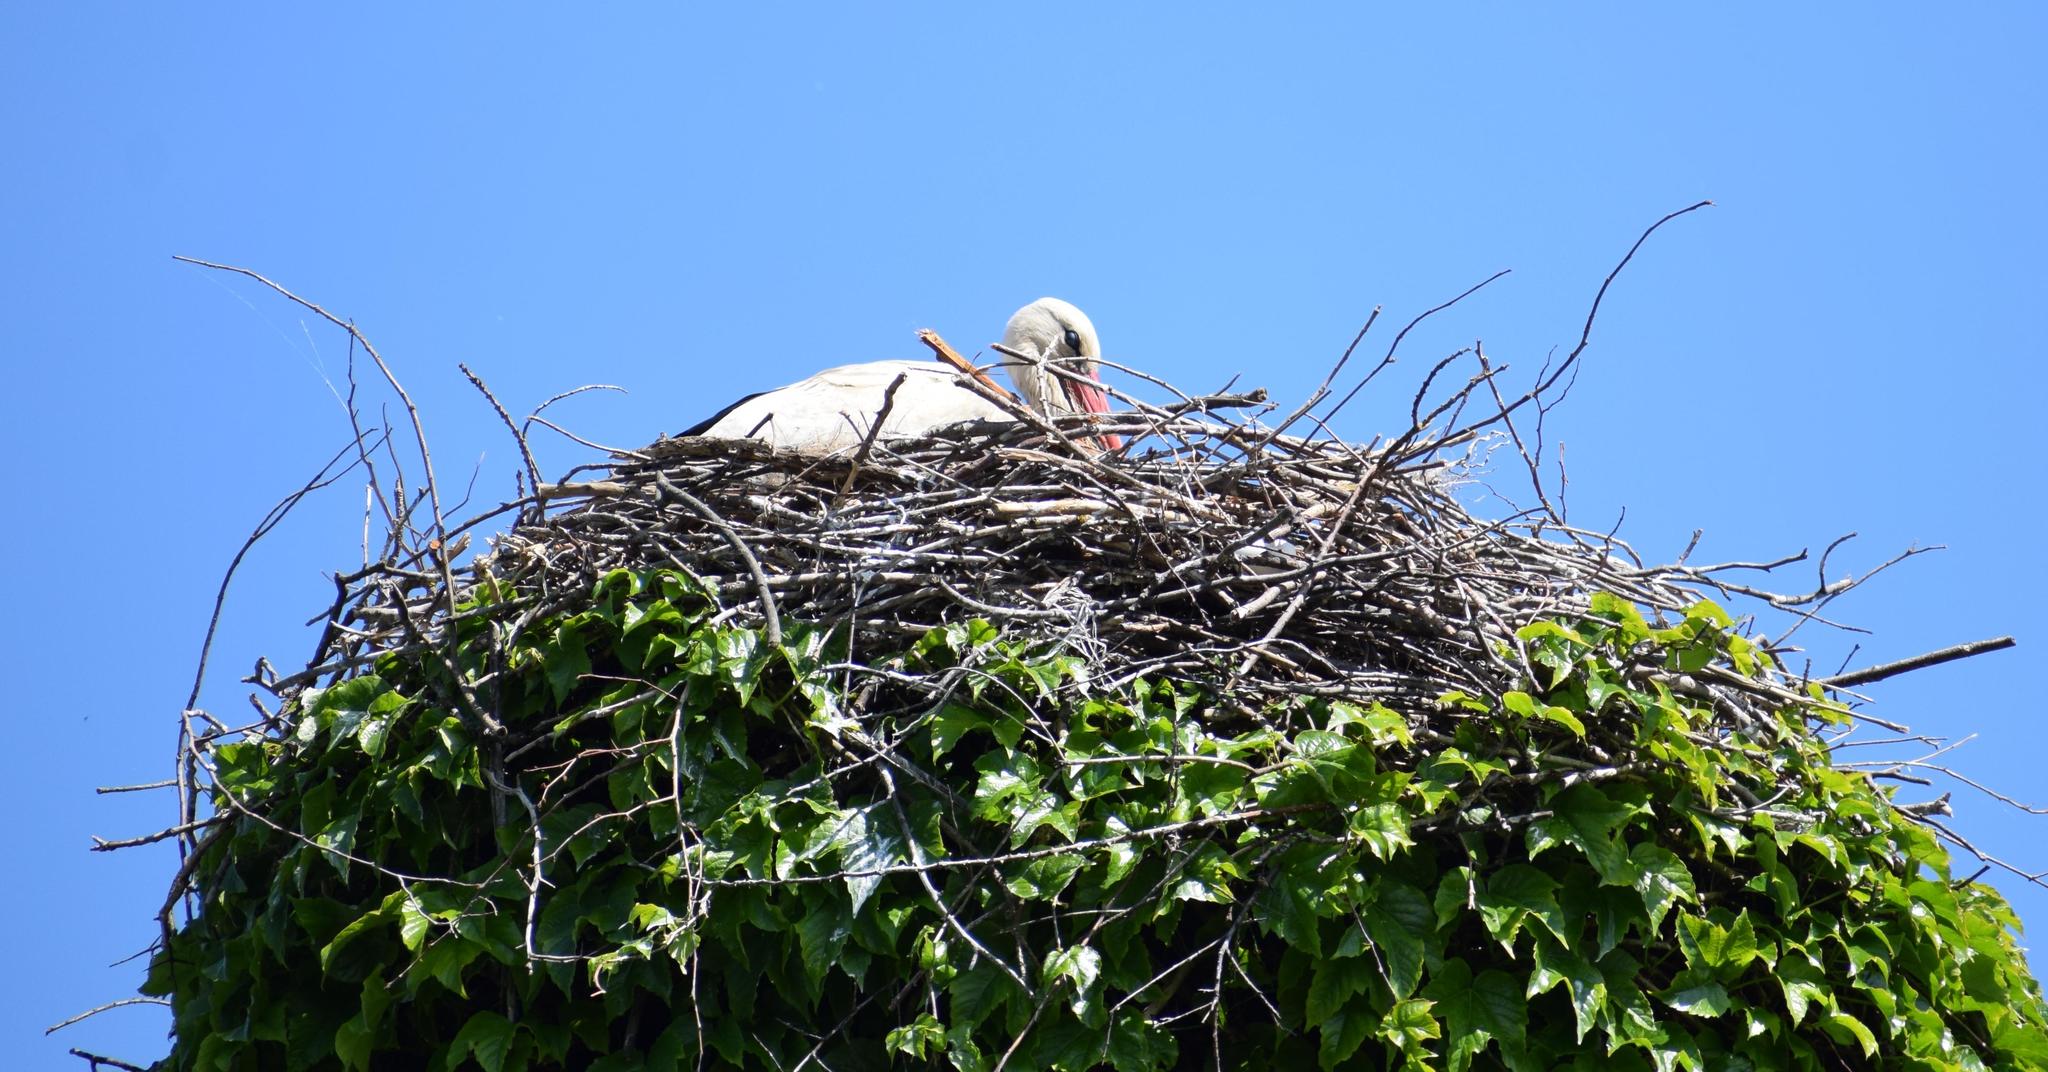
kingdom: Animalia
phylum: Chordata
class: Aves
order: Ciconiiformes
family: Ciconiidae
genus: Ciconia
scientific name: Ciconia ciconia
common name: White stork
